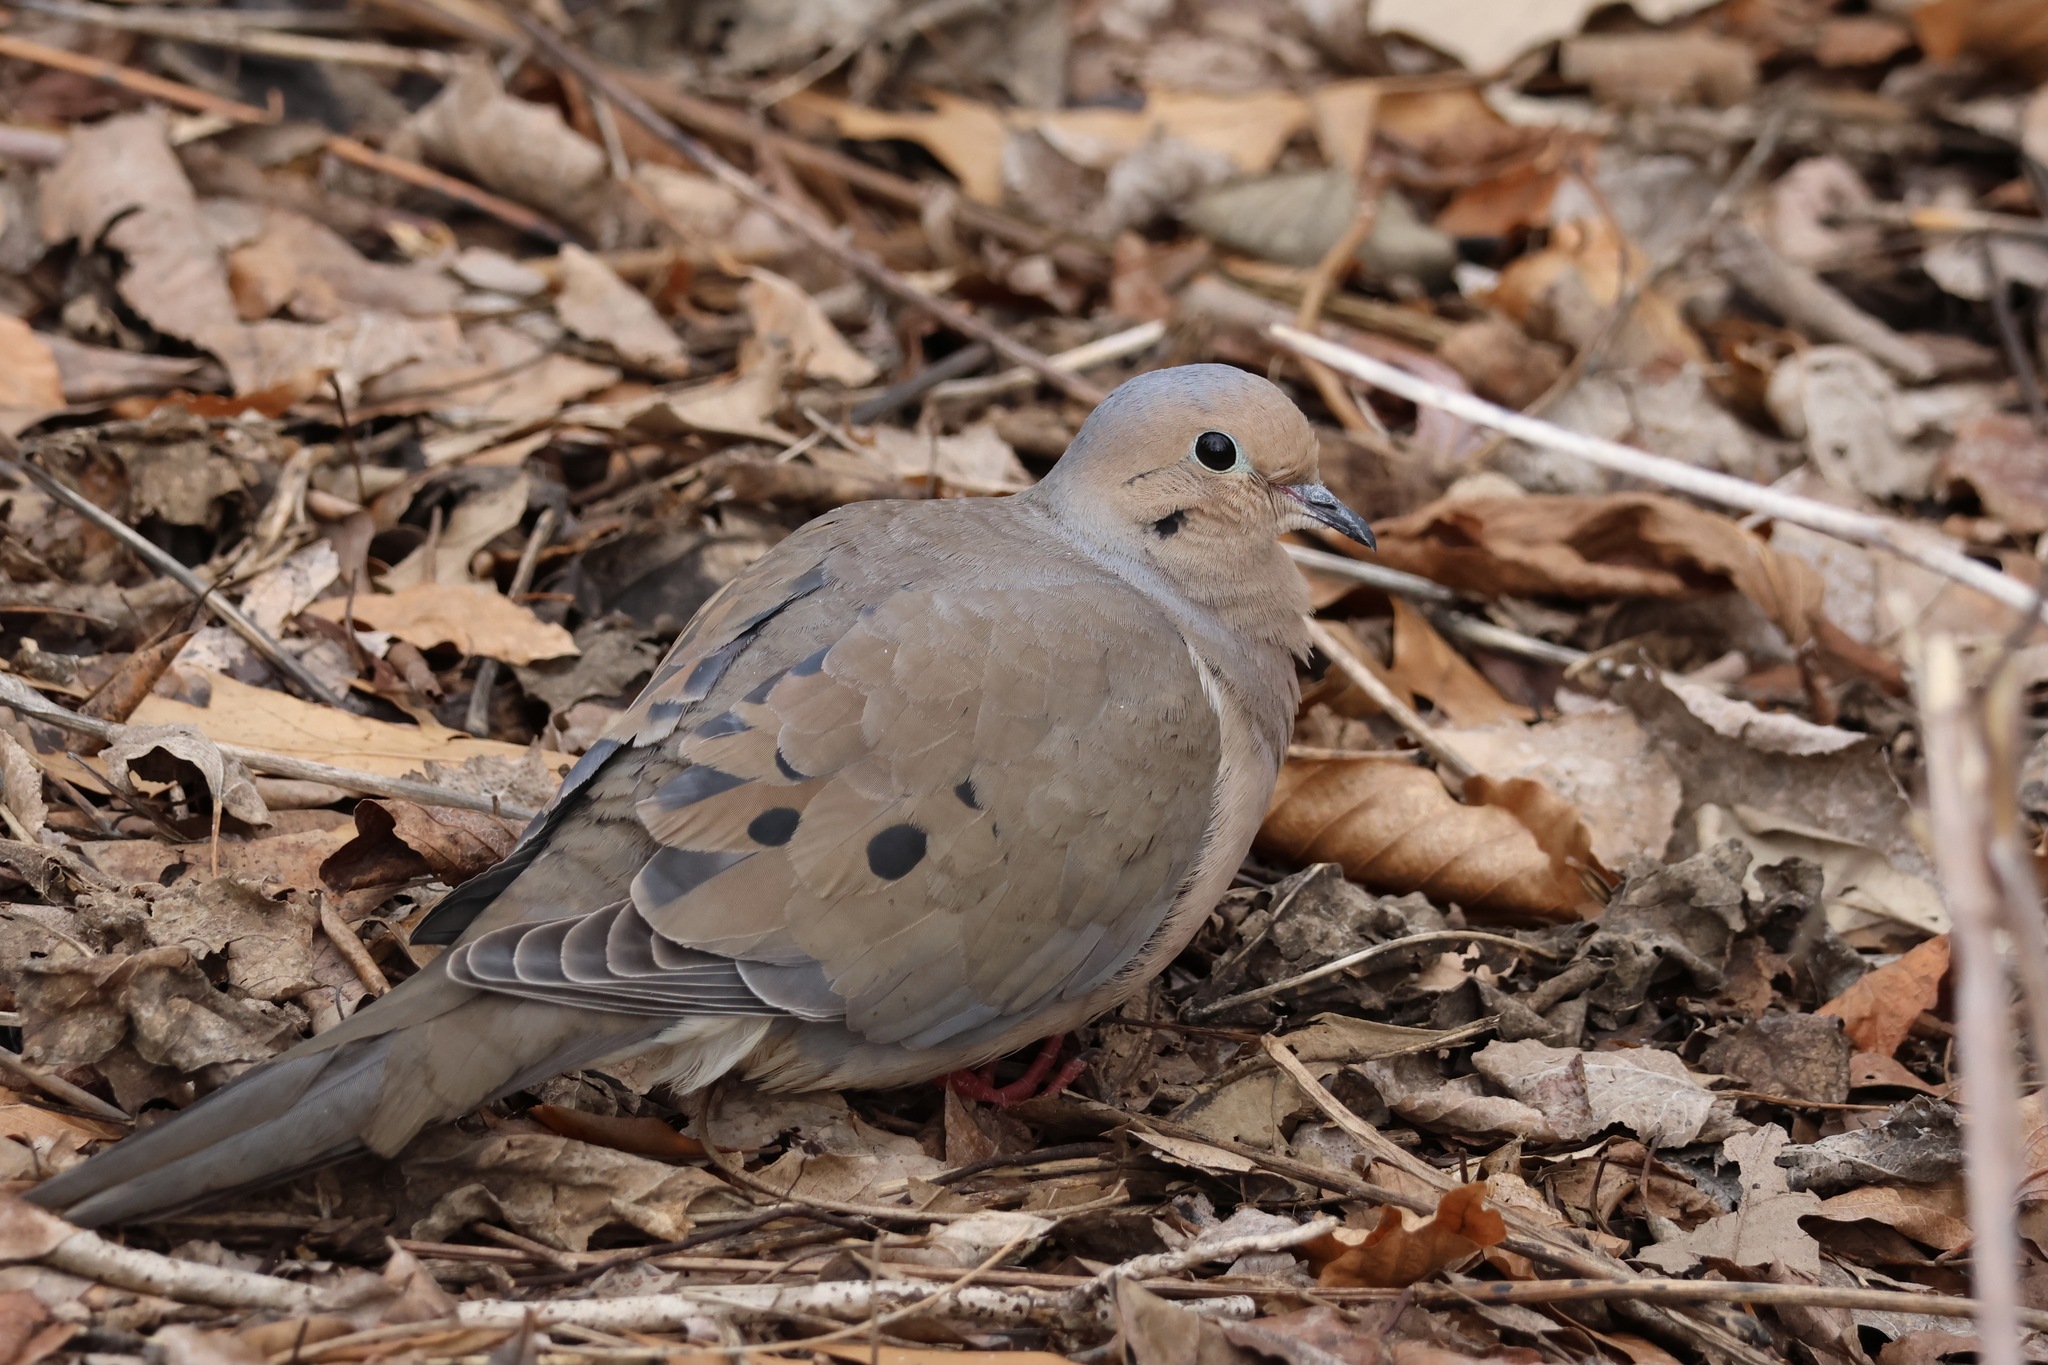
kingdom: Animalia
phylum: Chordata
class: Aves
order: Columbiformes
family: Columbidae
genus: Zenaida
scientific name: Zenaida macroura
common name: Mourning dove
